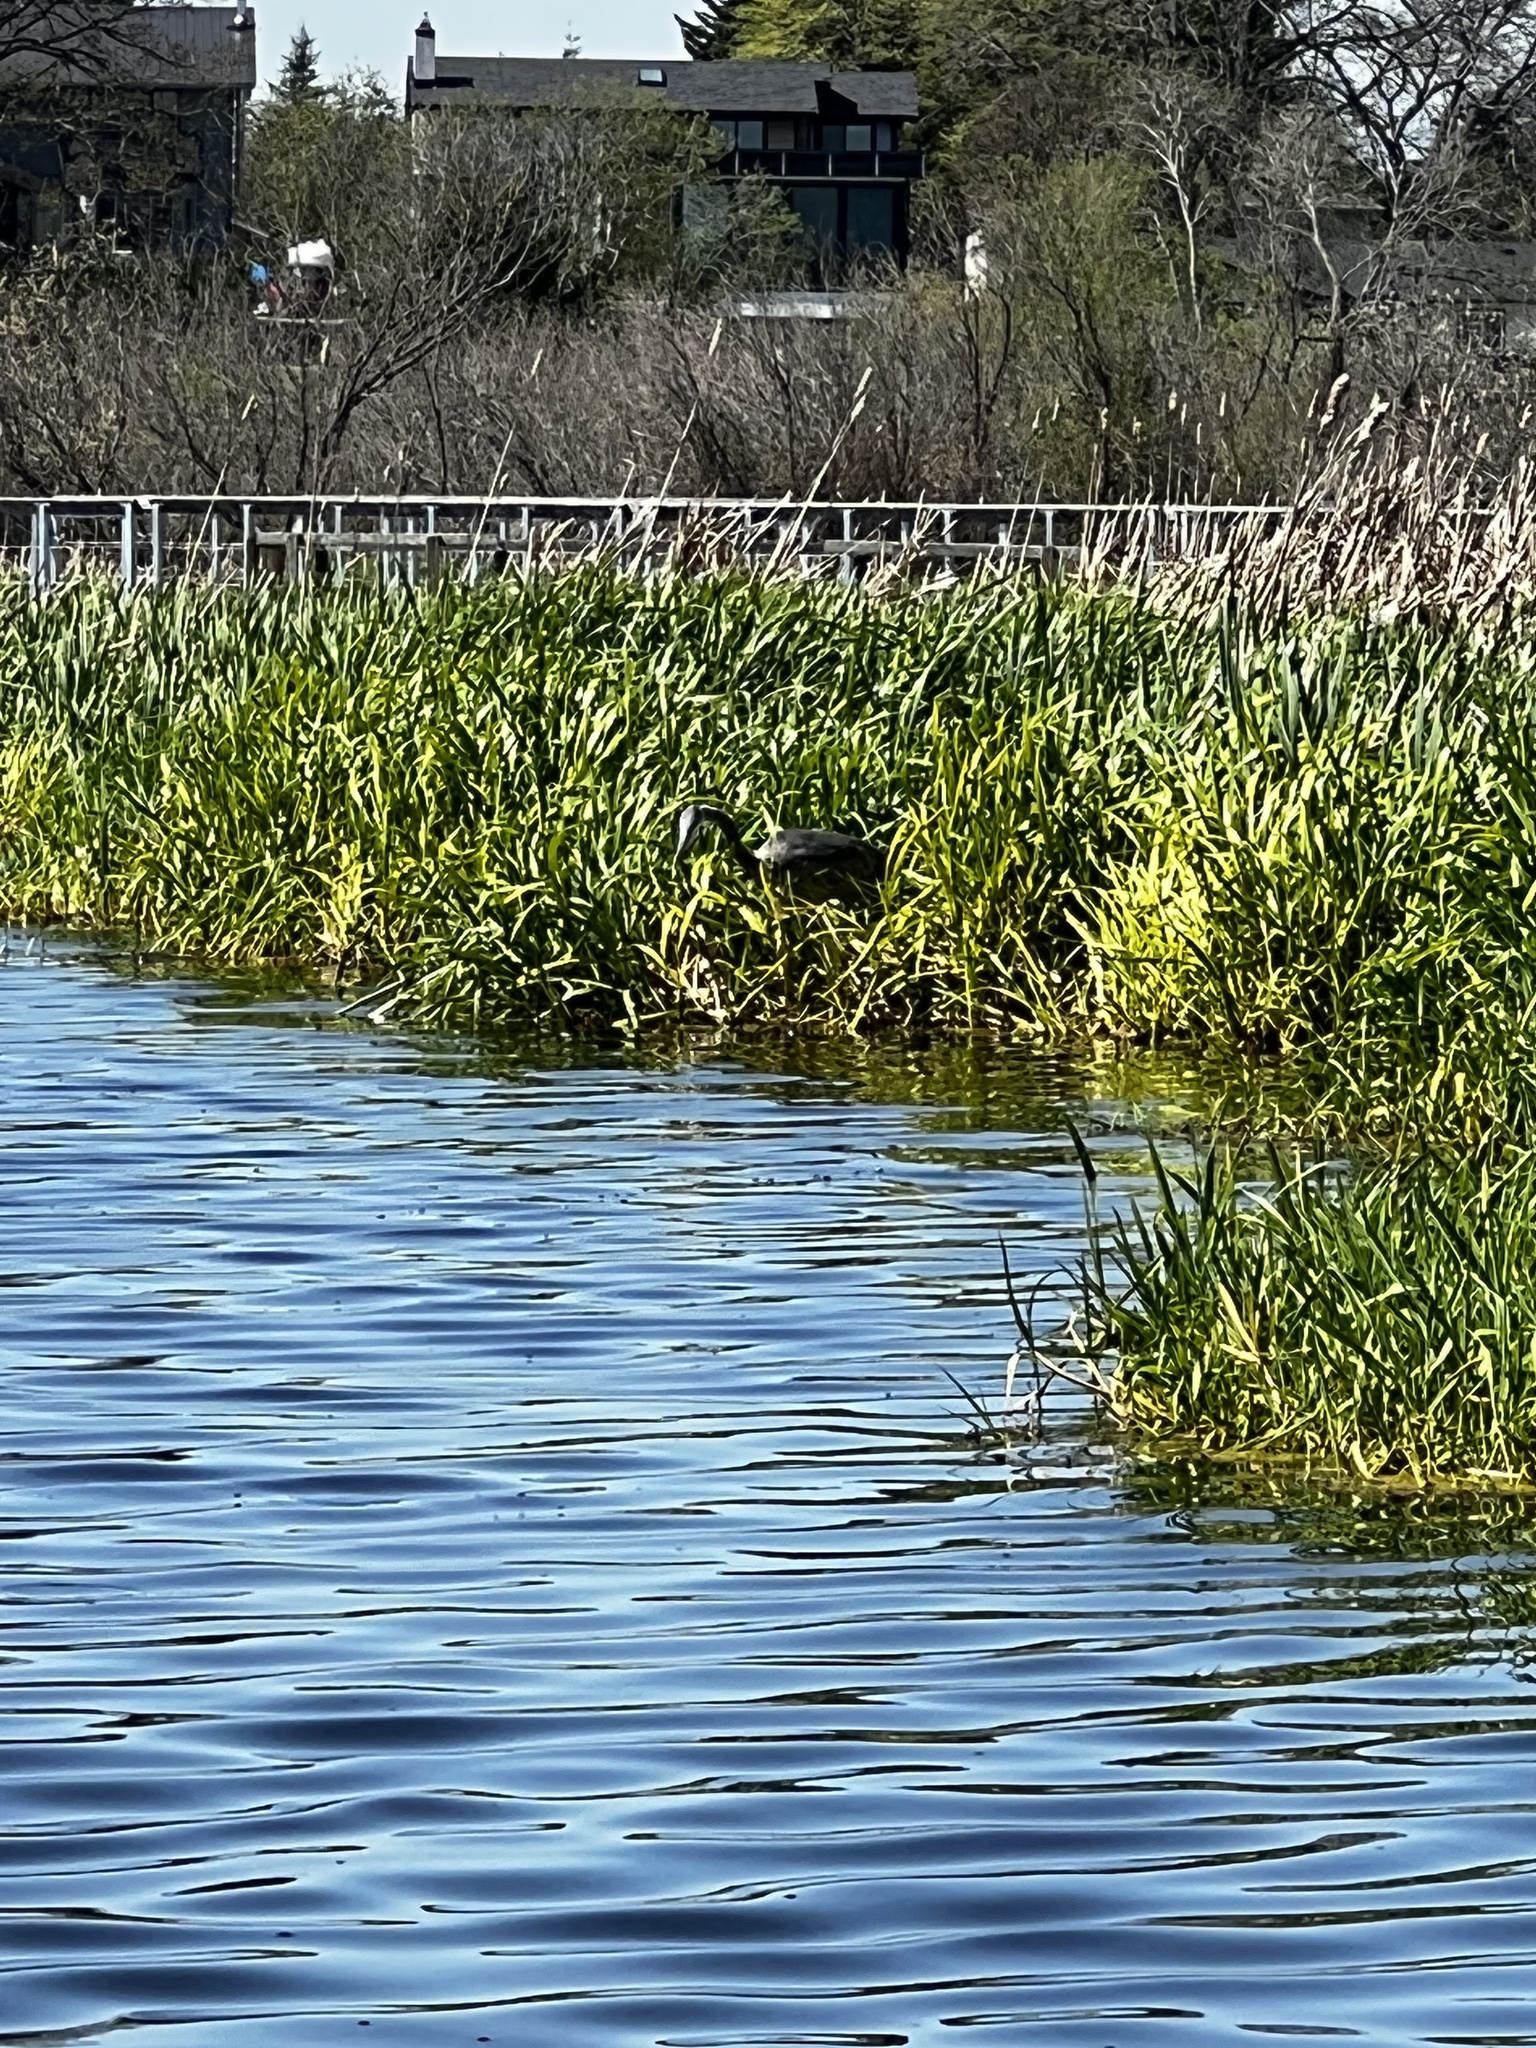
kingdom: Animalia
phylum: Chordata
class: Aves
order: Pelecaniformes
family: Ardeidae
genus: Ardea
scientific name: Ardea herodias
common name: Great blue heron
